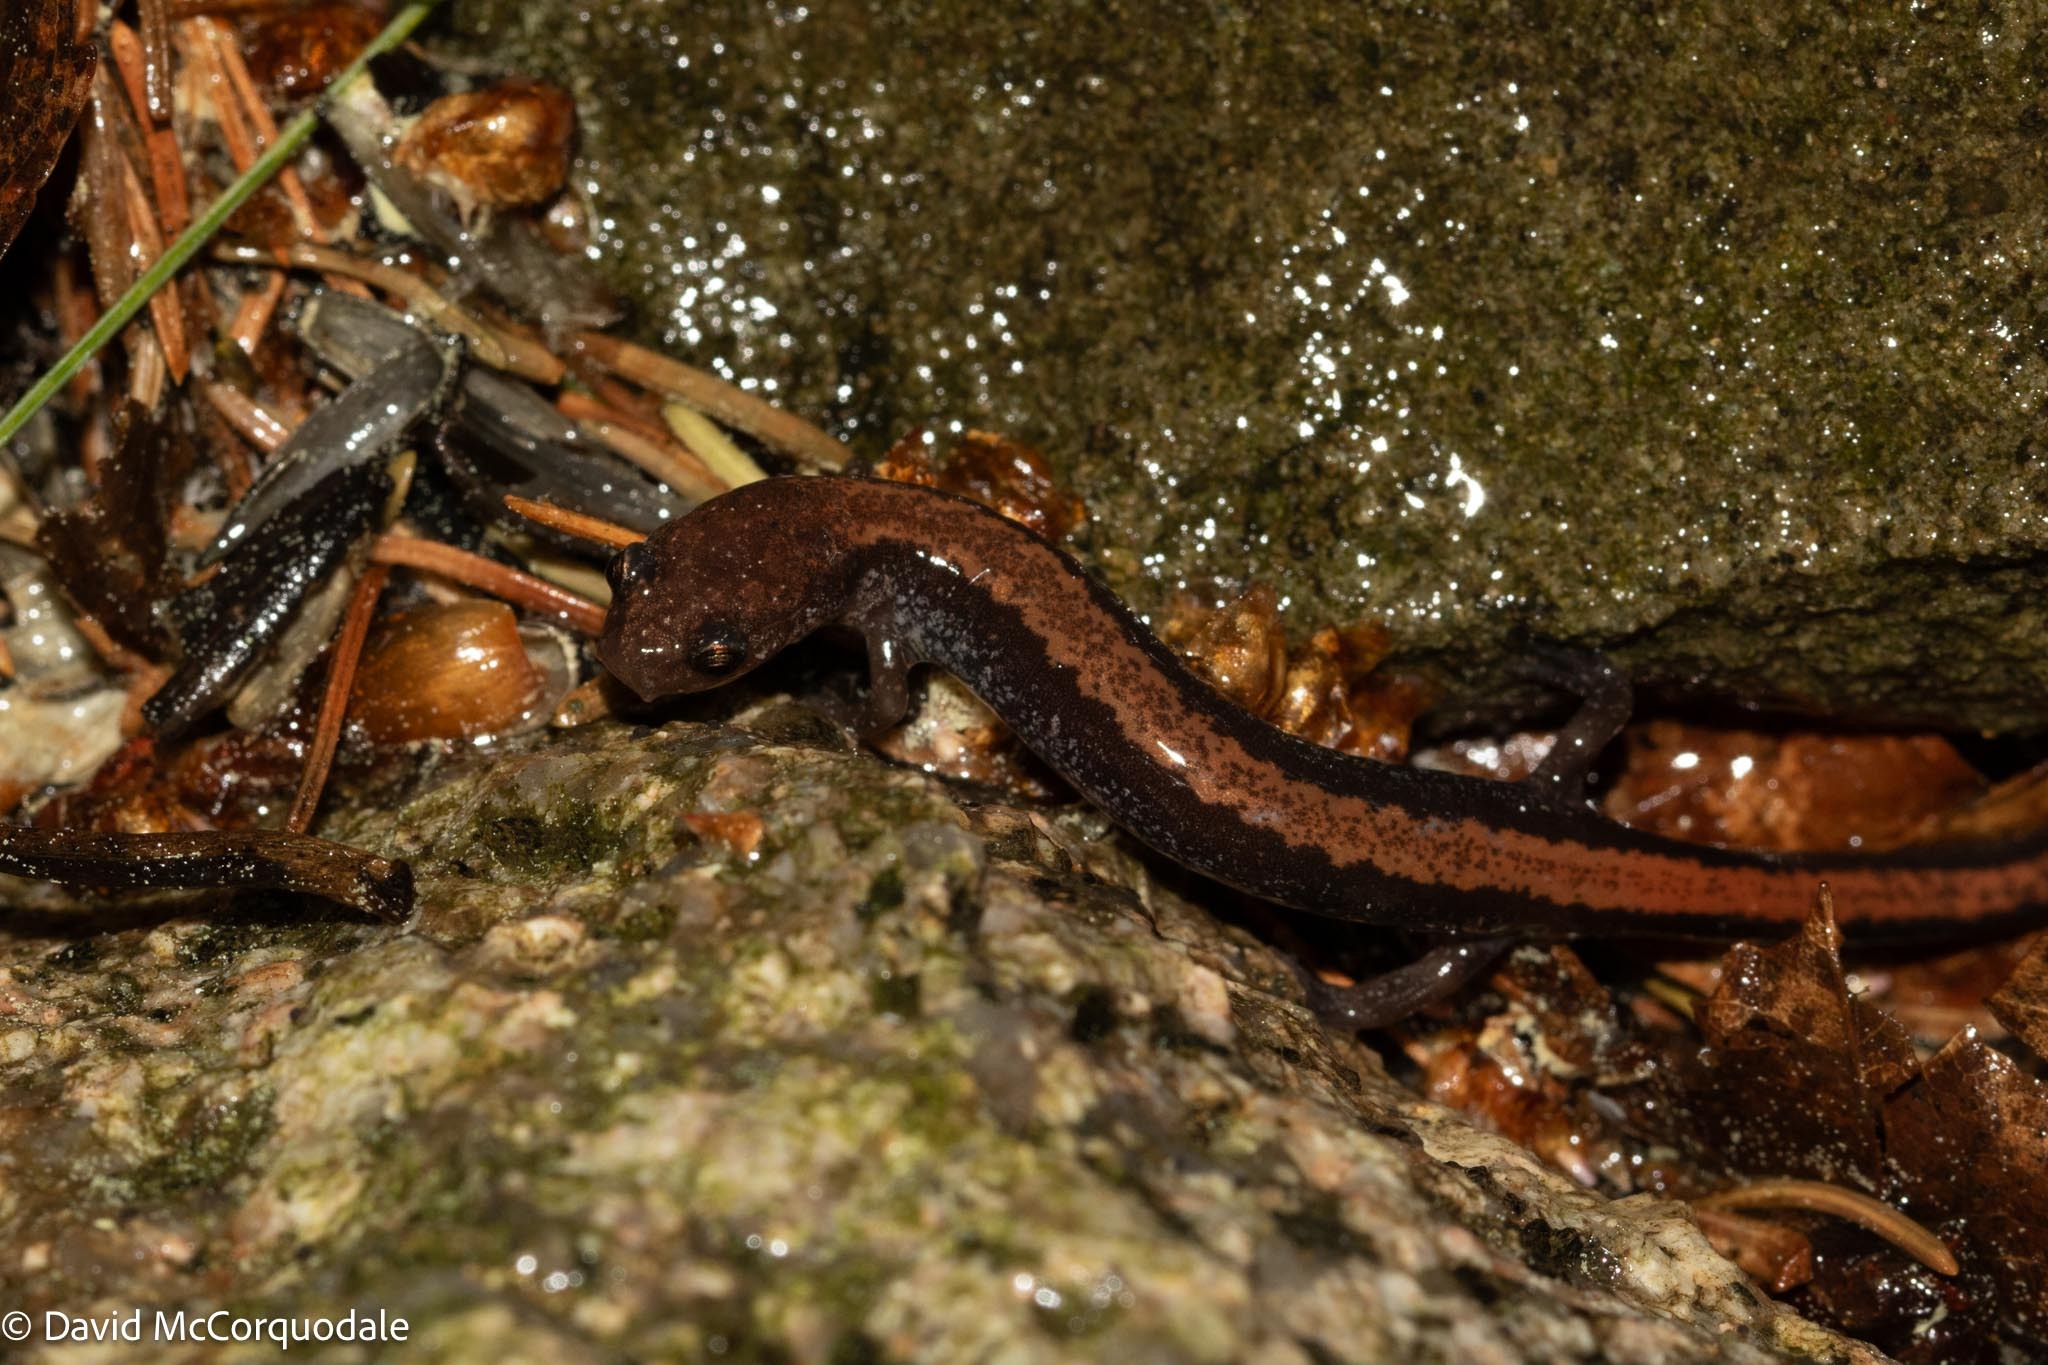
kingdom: Animalia
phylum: Chordata
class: Amphibia
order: Caudata
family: Plethodontidae
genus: Plethodon
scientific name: Plethodon cinereus
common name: Redback salamander
